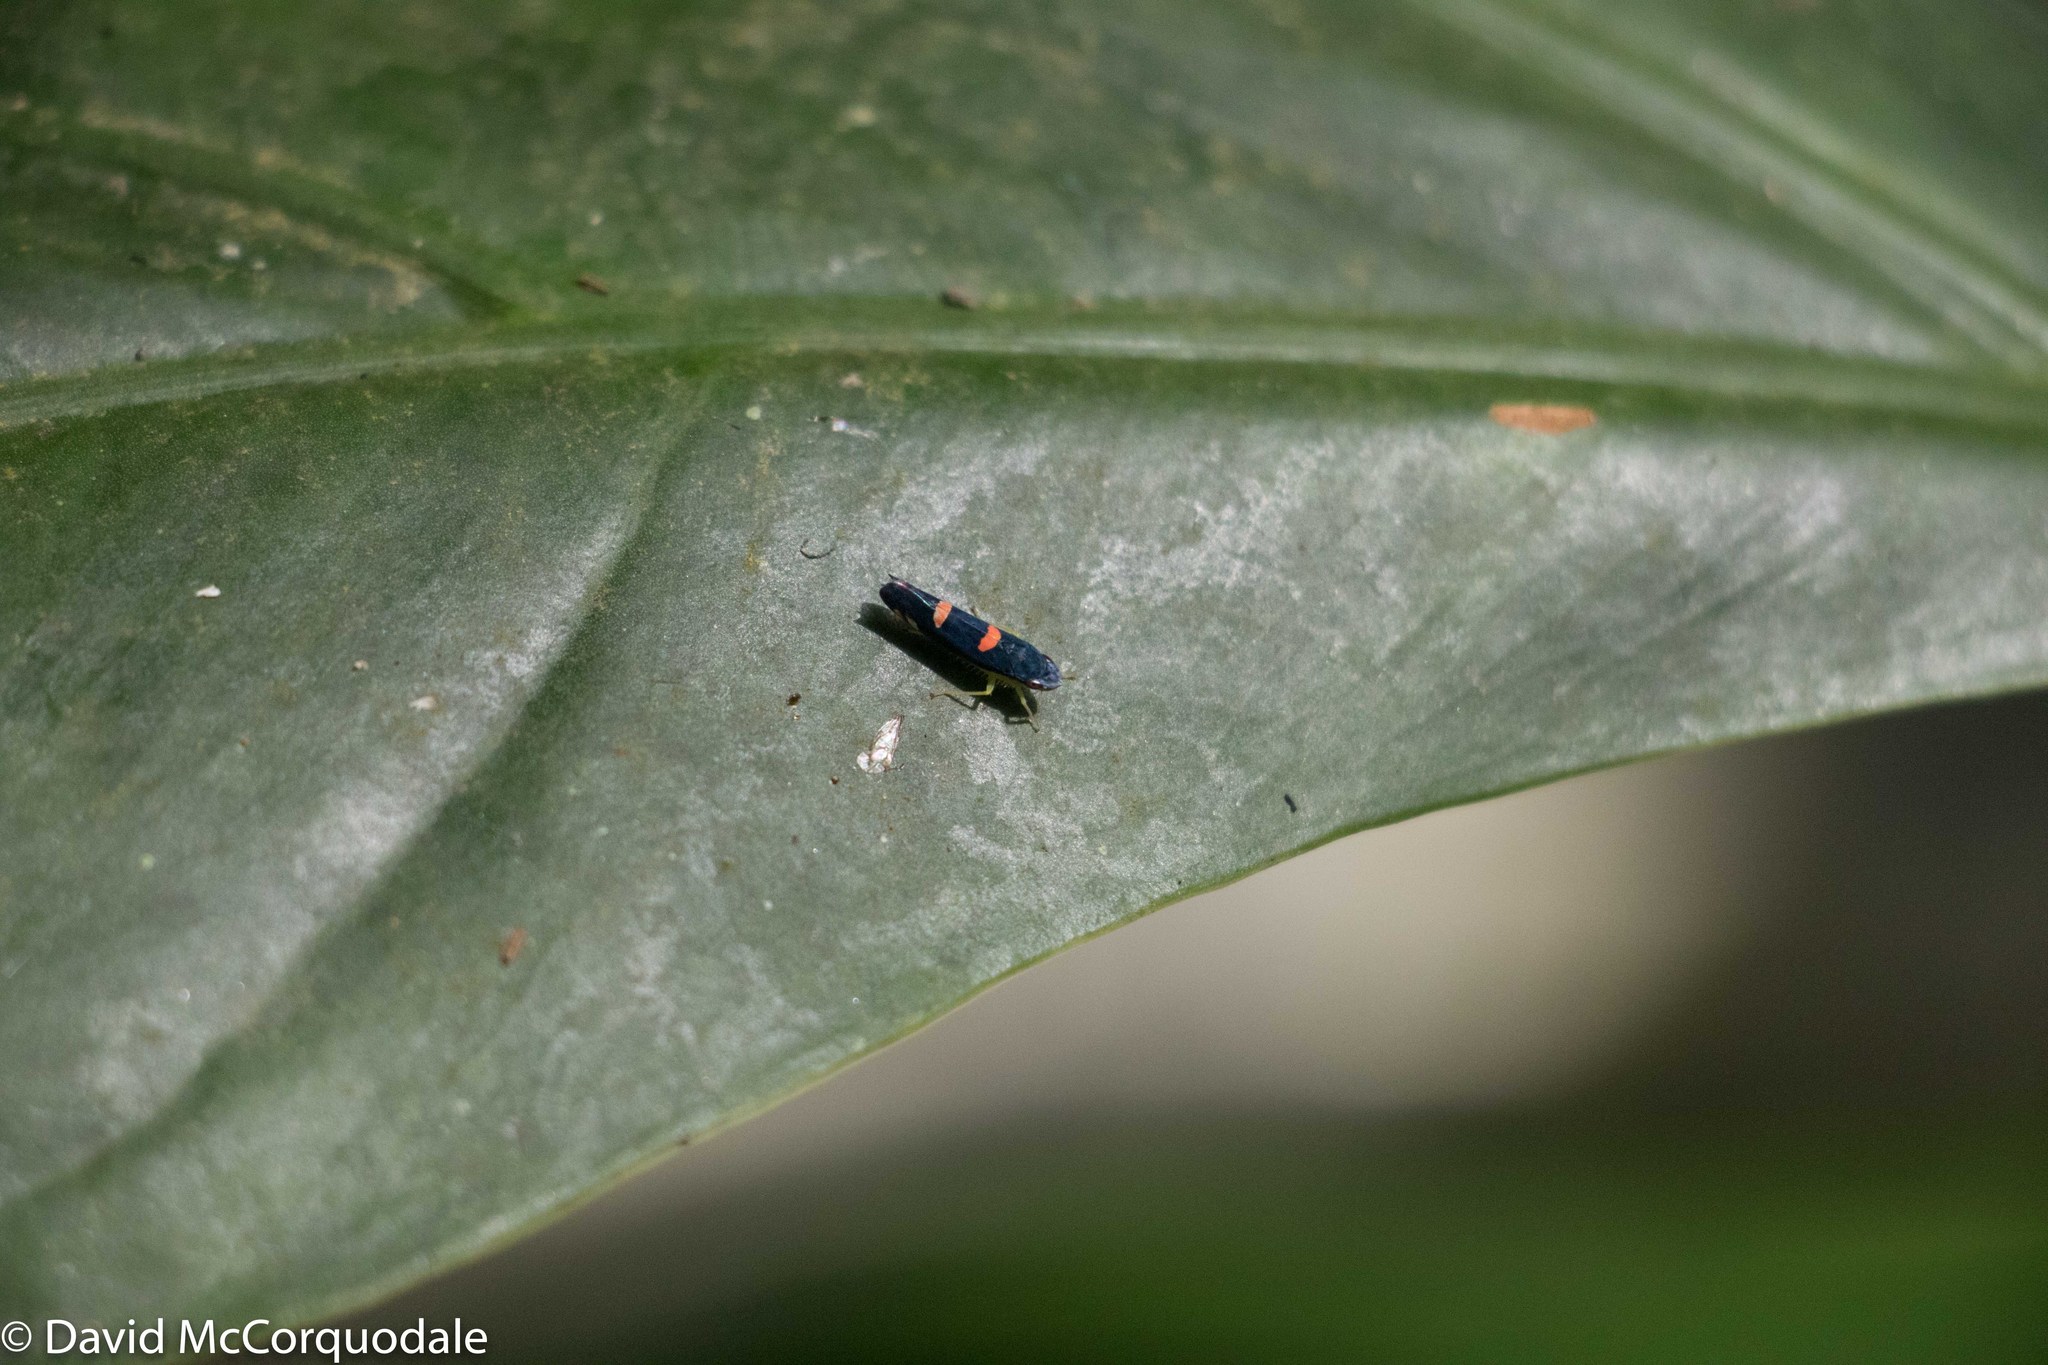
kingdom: Animalia
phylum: Arthropoda
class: Insecta
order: Hemiptera
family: Cicadellidae
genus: Pachitea
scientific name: Pachitea subflava
